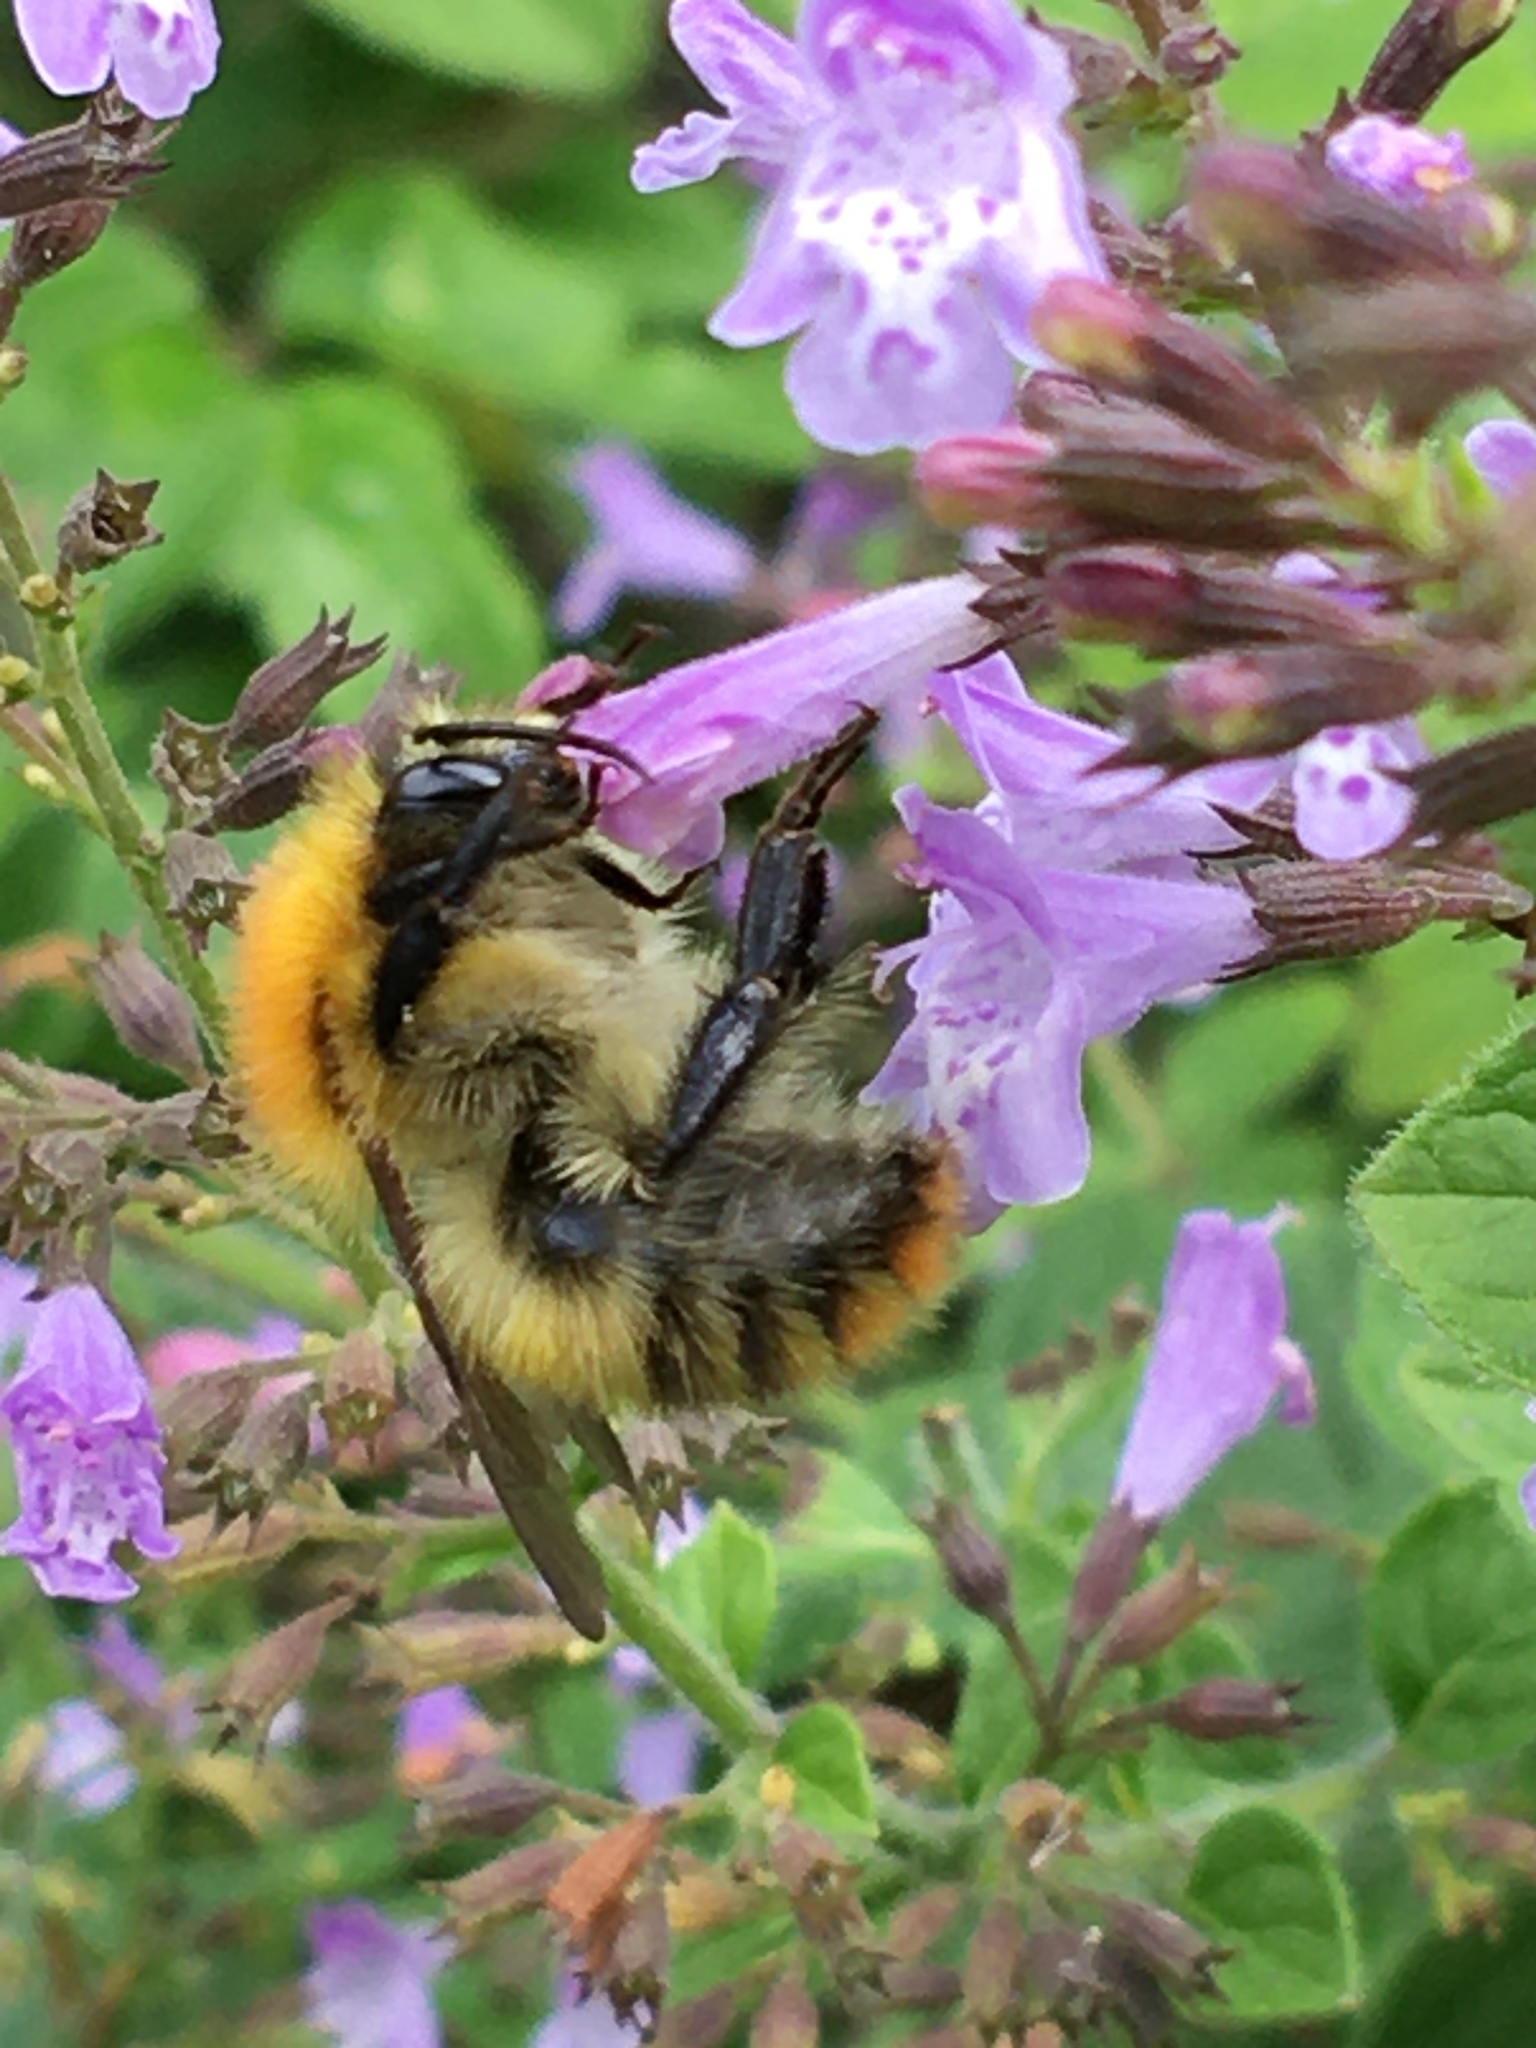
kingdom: Animalia
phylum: Arthropoda
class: Insecta
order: Hymenoptera
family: Apidae
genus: Bombus
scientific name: Bombus pascuorum
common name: Common carder bee
